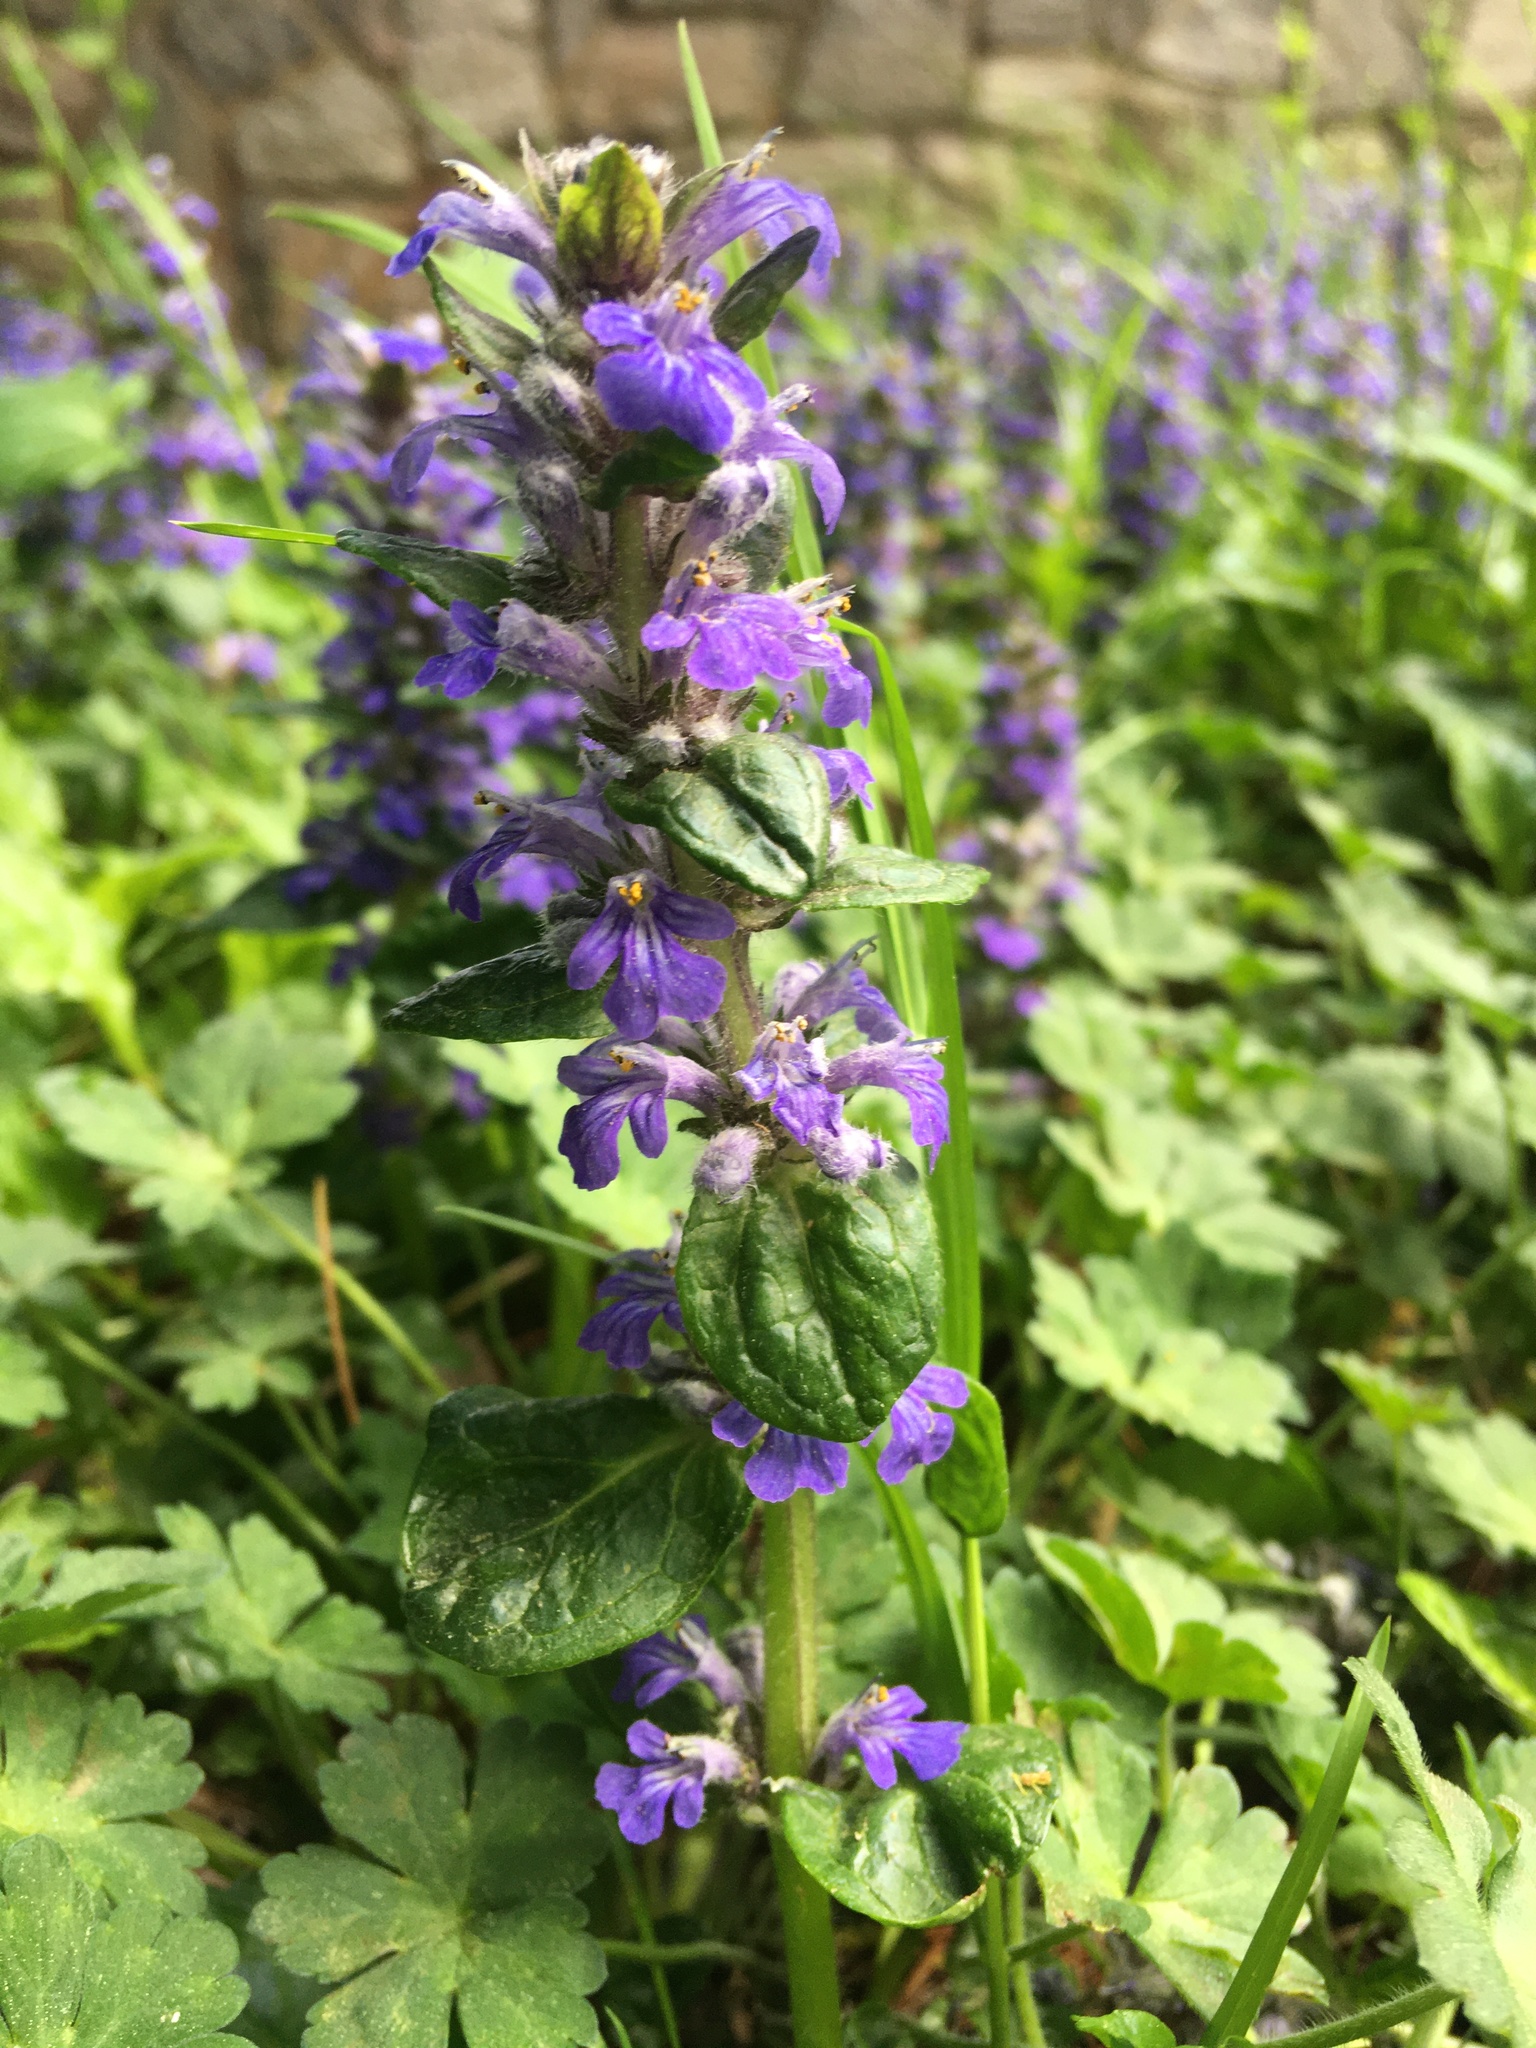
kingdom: Plantae
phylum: Tracheophyta
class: Magnoliopsida
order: Lamiales
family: Lamiaceae
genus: Ajuga
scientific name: Ajuga reptans
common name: Bugle
